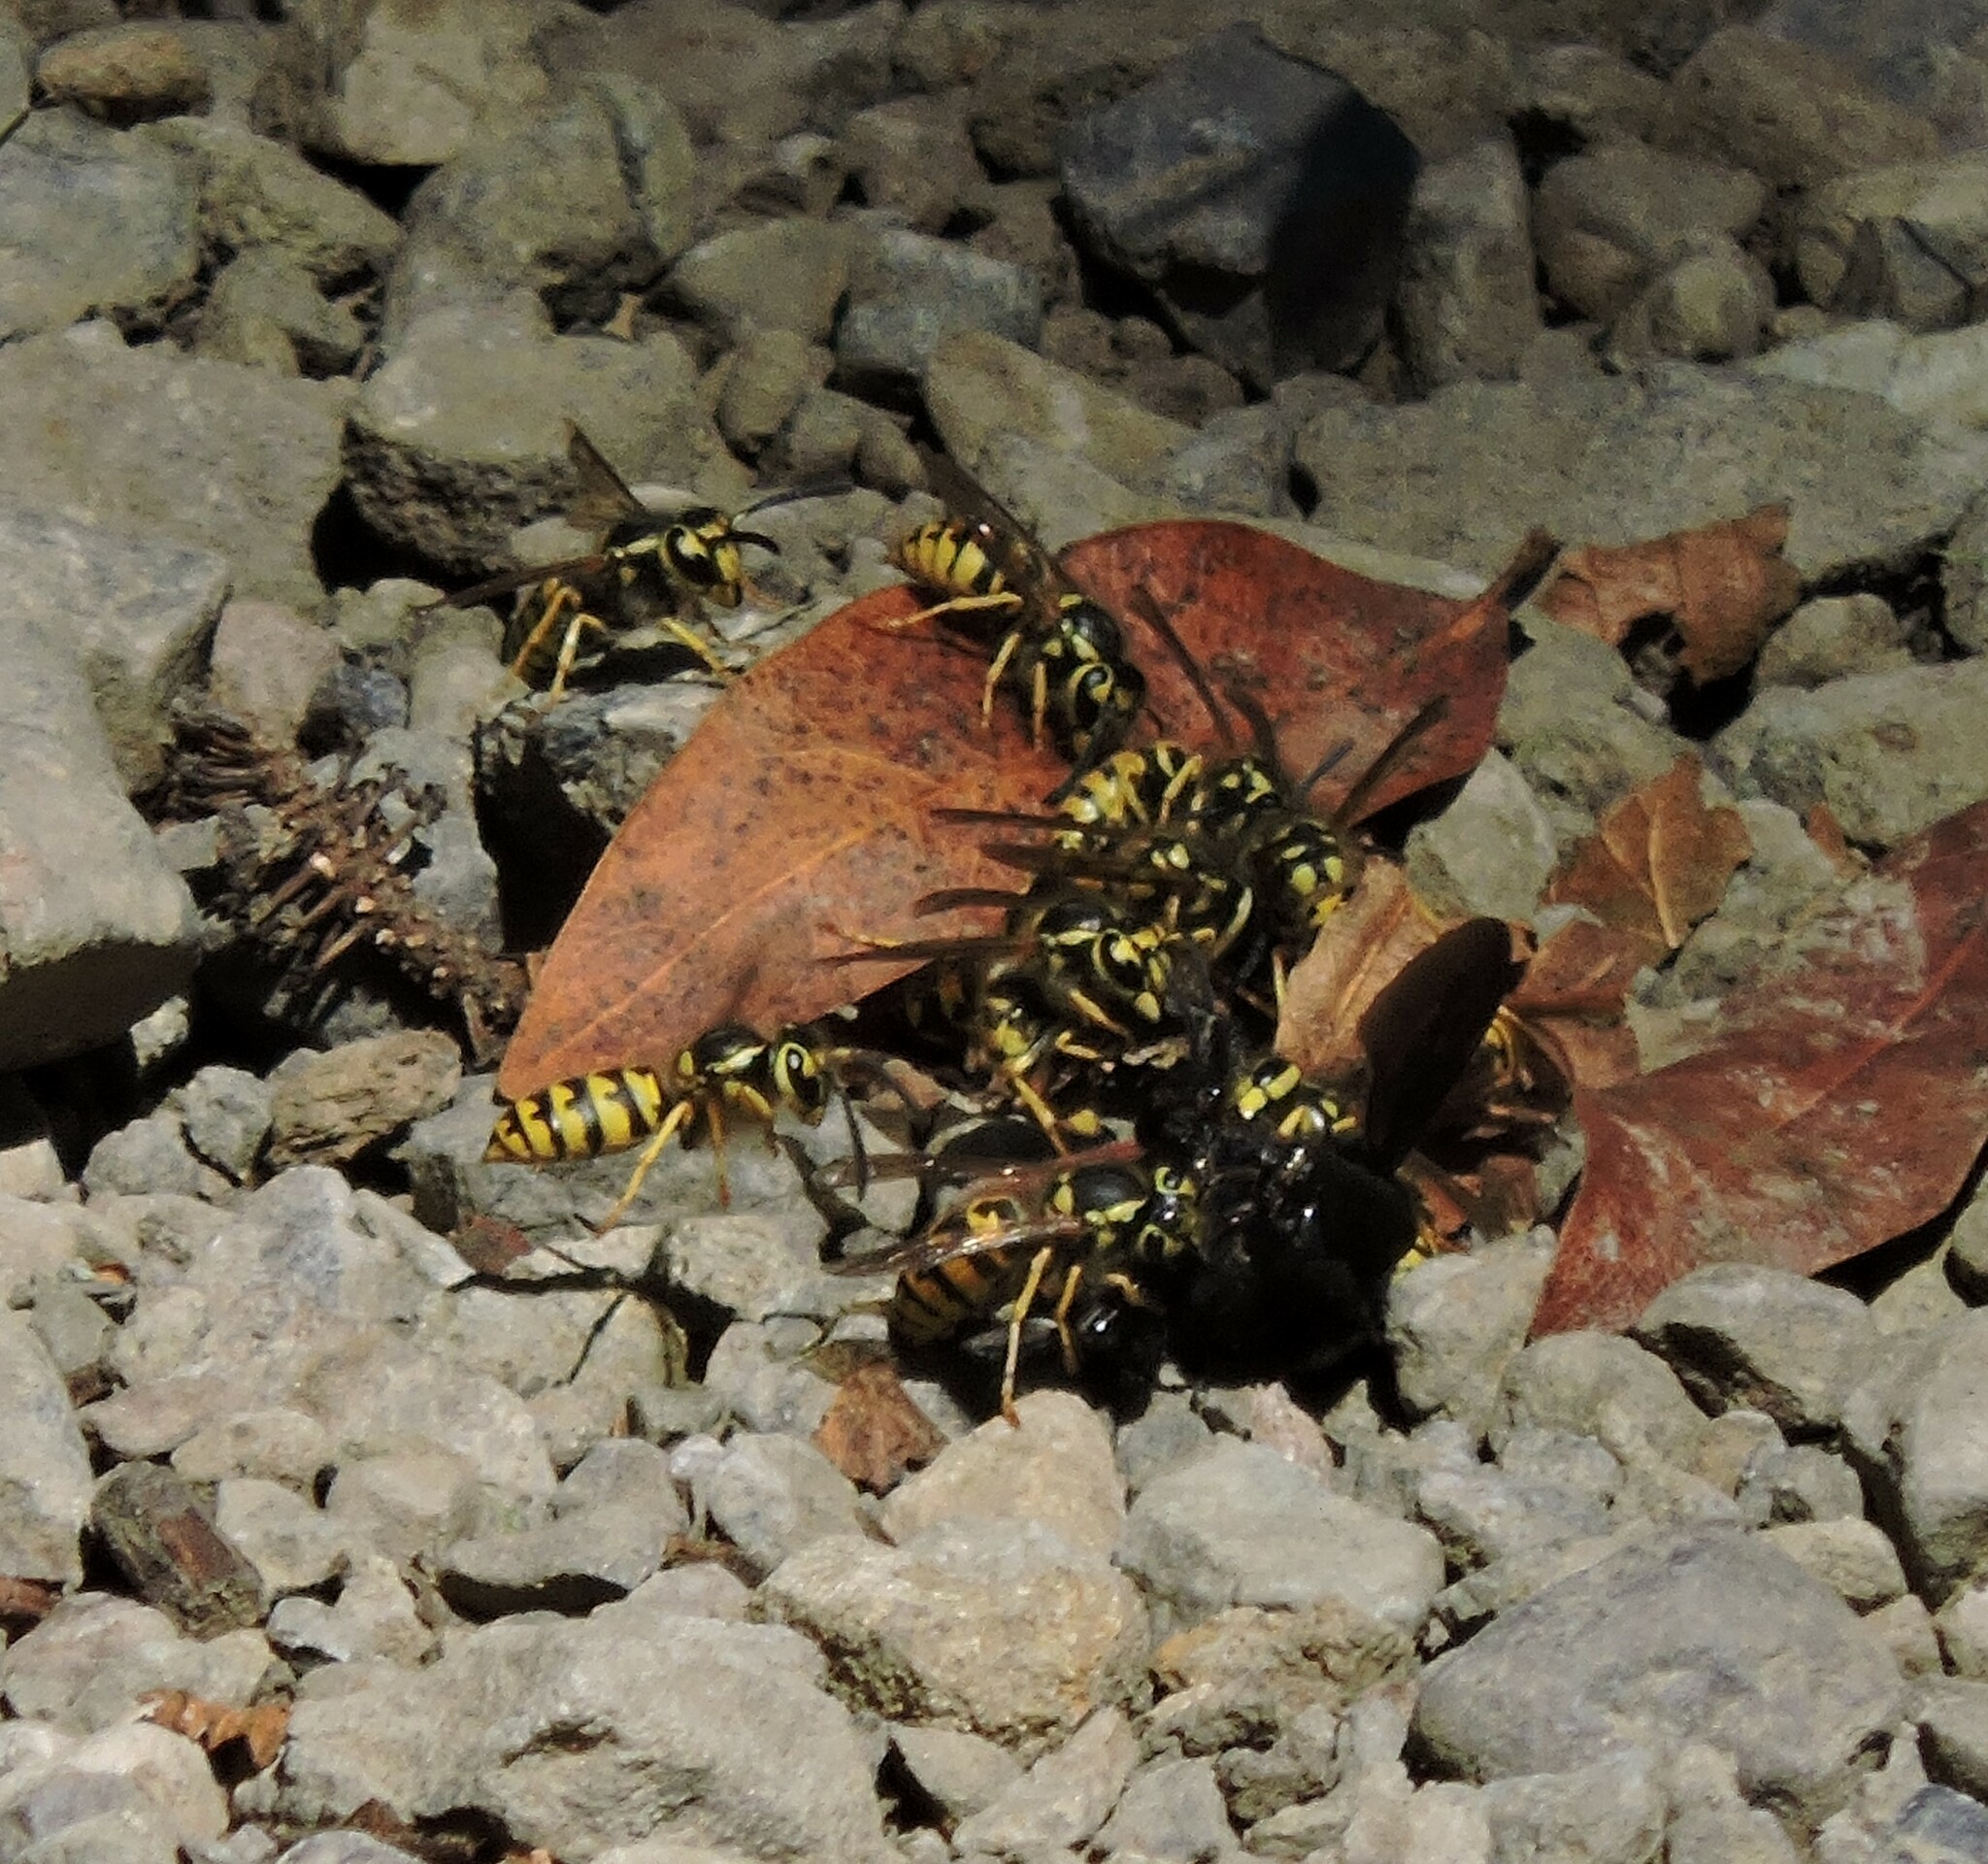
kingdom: Animalia
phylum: Arthropoda
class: Insecta
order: Hymenoptera
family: Vespidae
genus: Vespula
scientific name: Vespula pensylvanica
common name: Western yellowjacket
